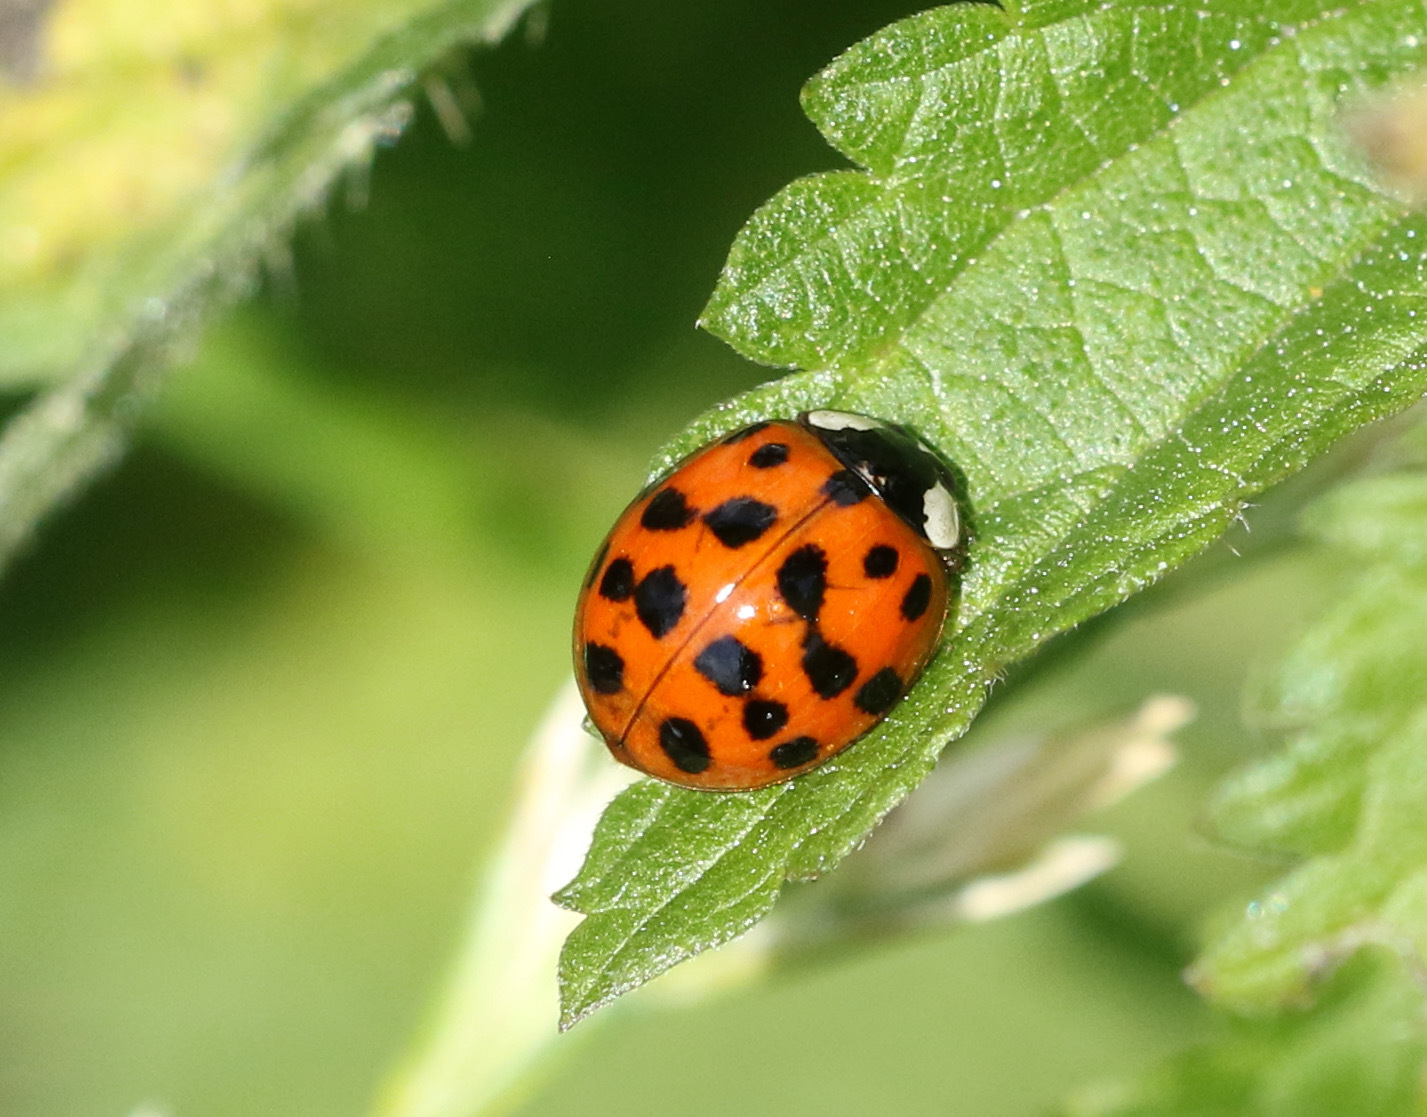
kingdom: Animalia
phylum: Arthropoda
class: Insecta
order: Coleoptera
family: Coccinellidae
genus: Harmonia
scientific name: Harmonia axyridis
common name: Harlequin ladybird
